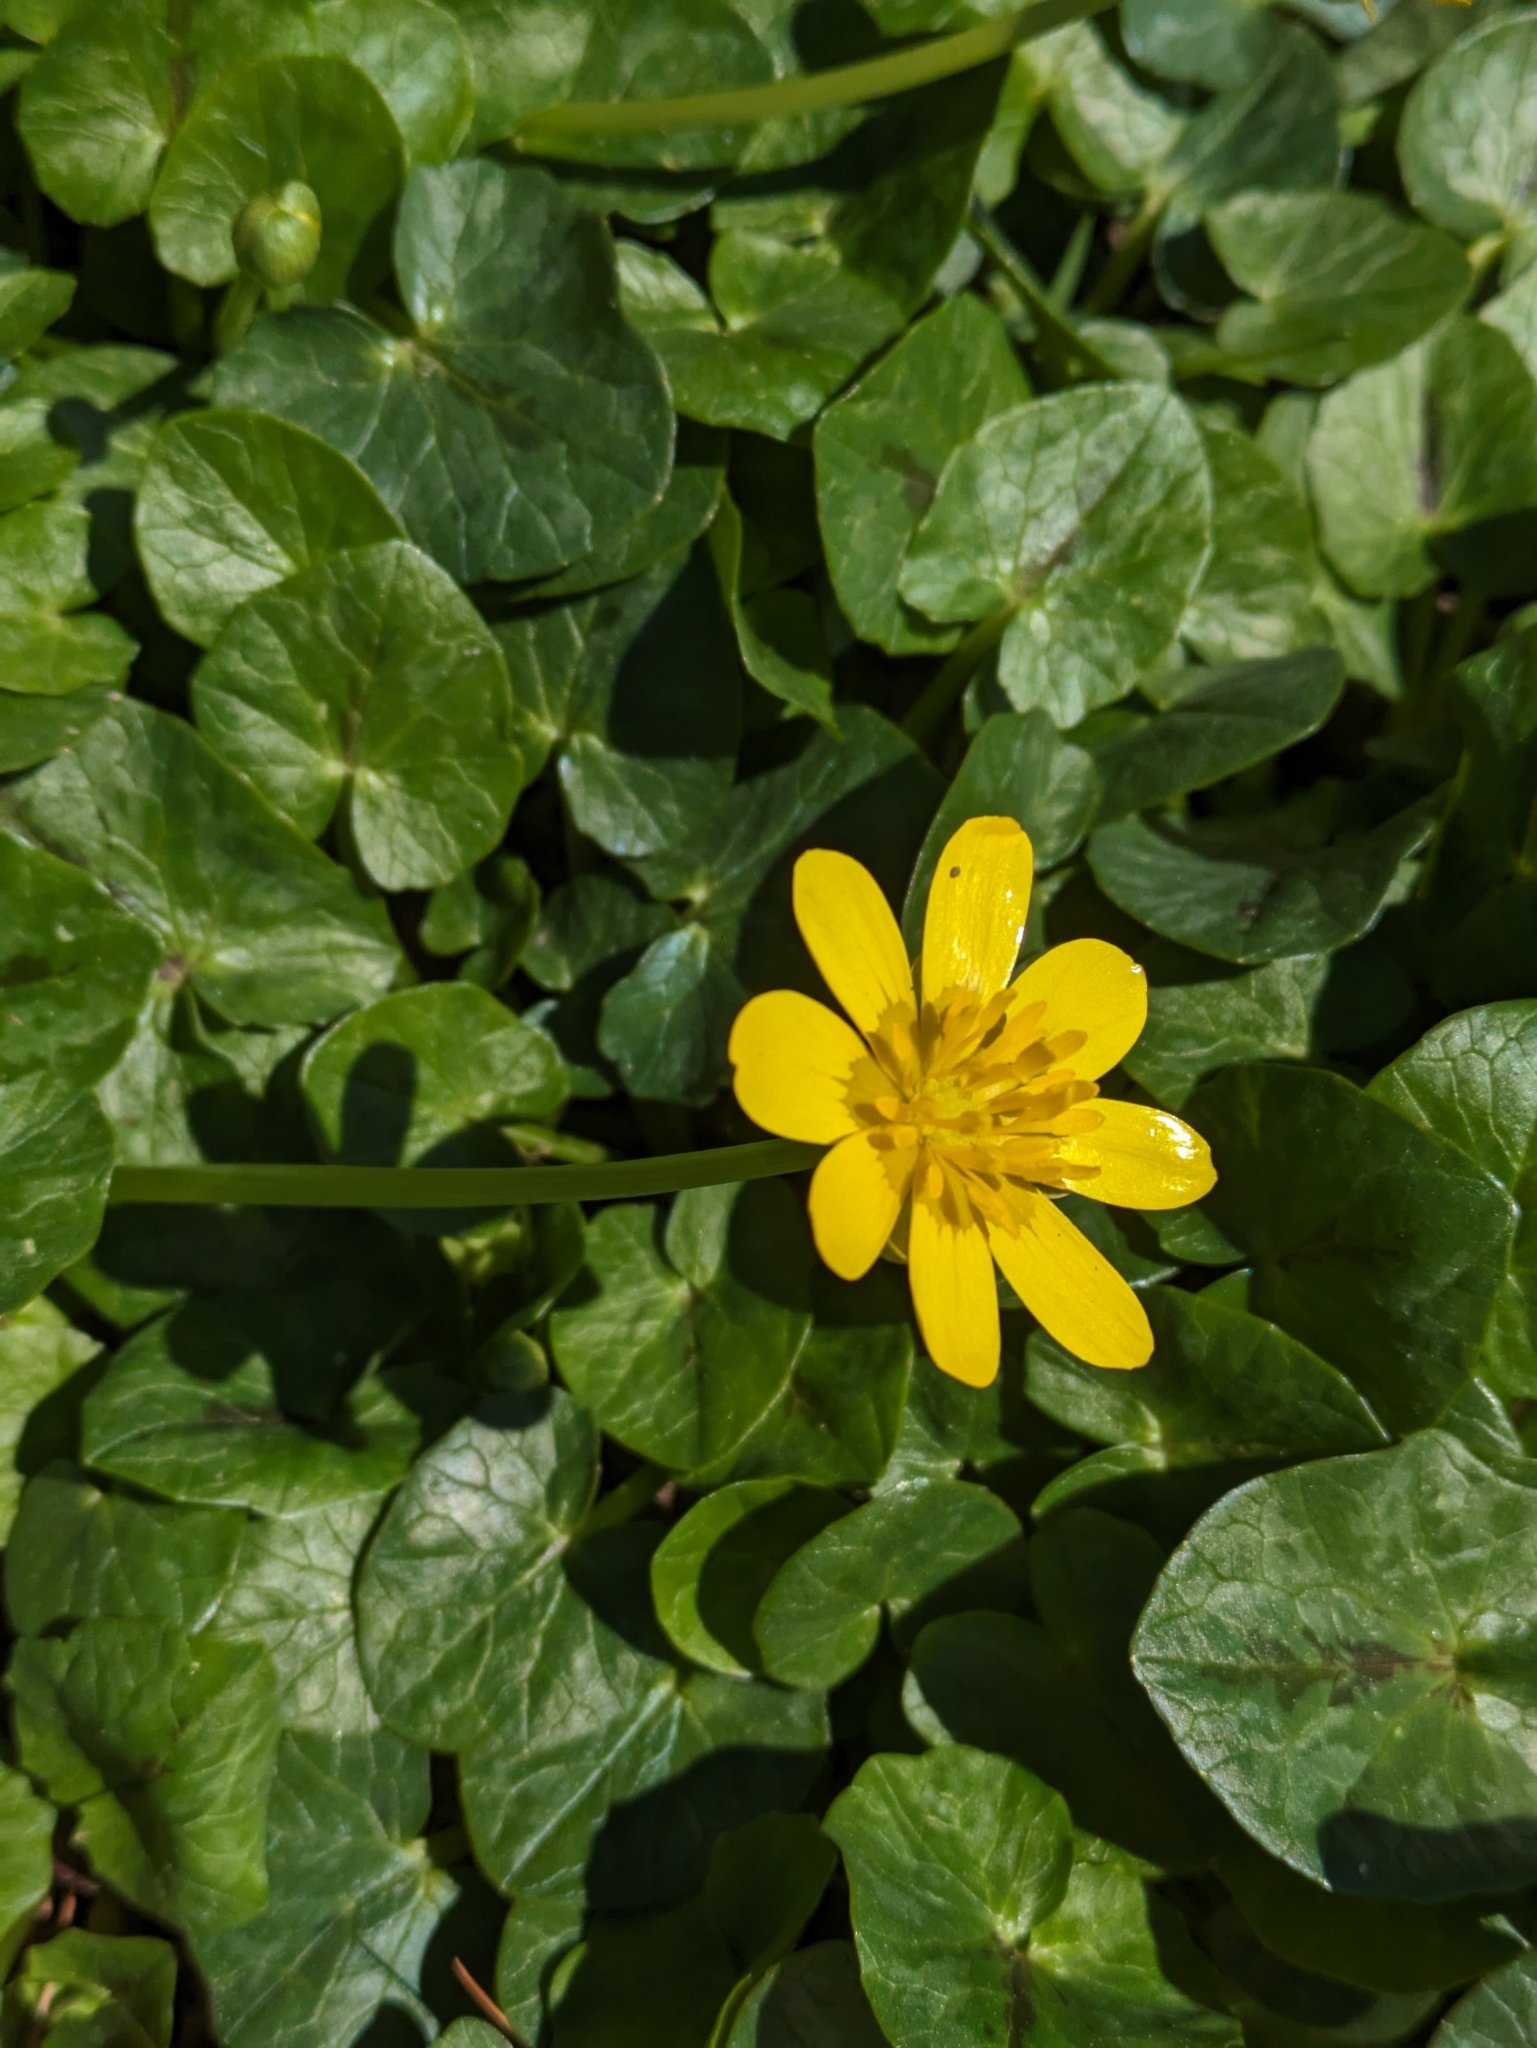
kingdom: Plantae
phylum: Tracheophyta
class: Magnoliopsida
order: Ranunculales
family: Ranunculaceae
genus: Ficaria
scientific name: Ficaria verna
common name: Lesser celandine
